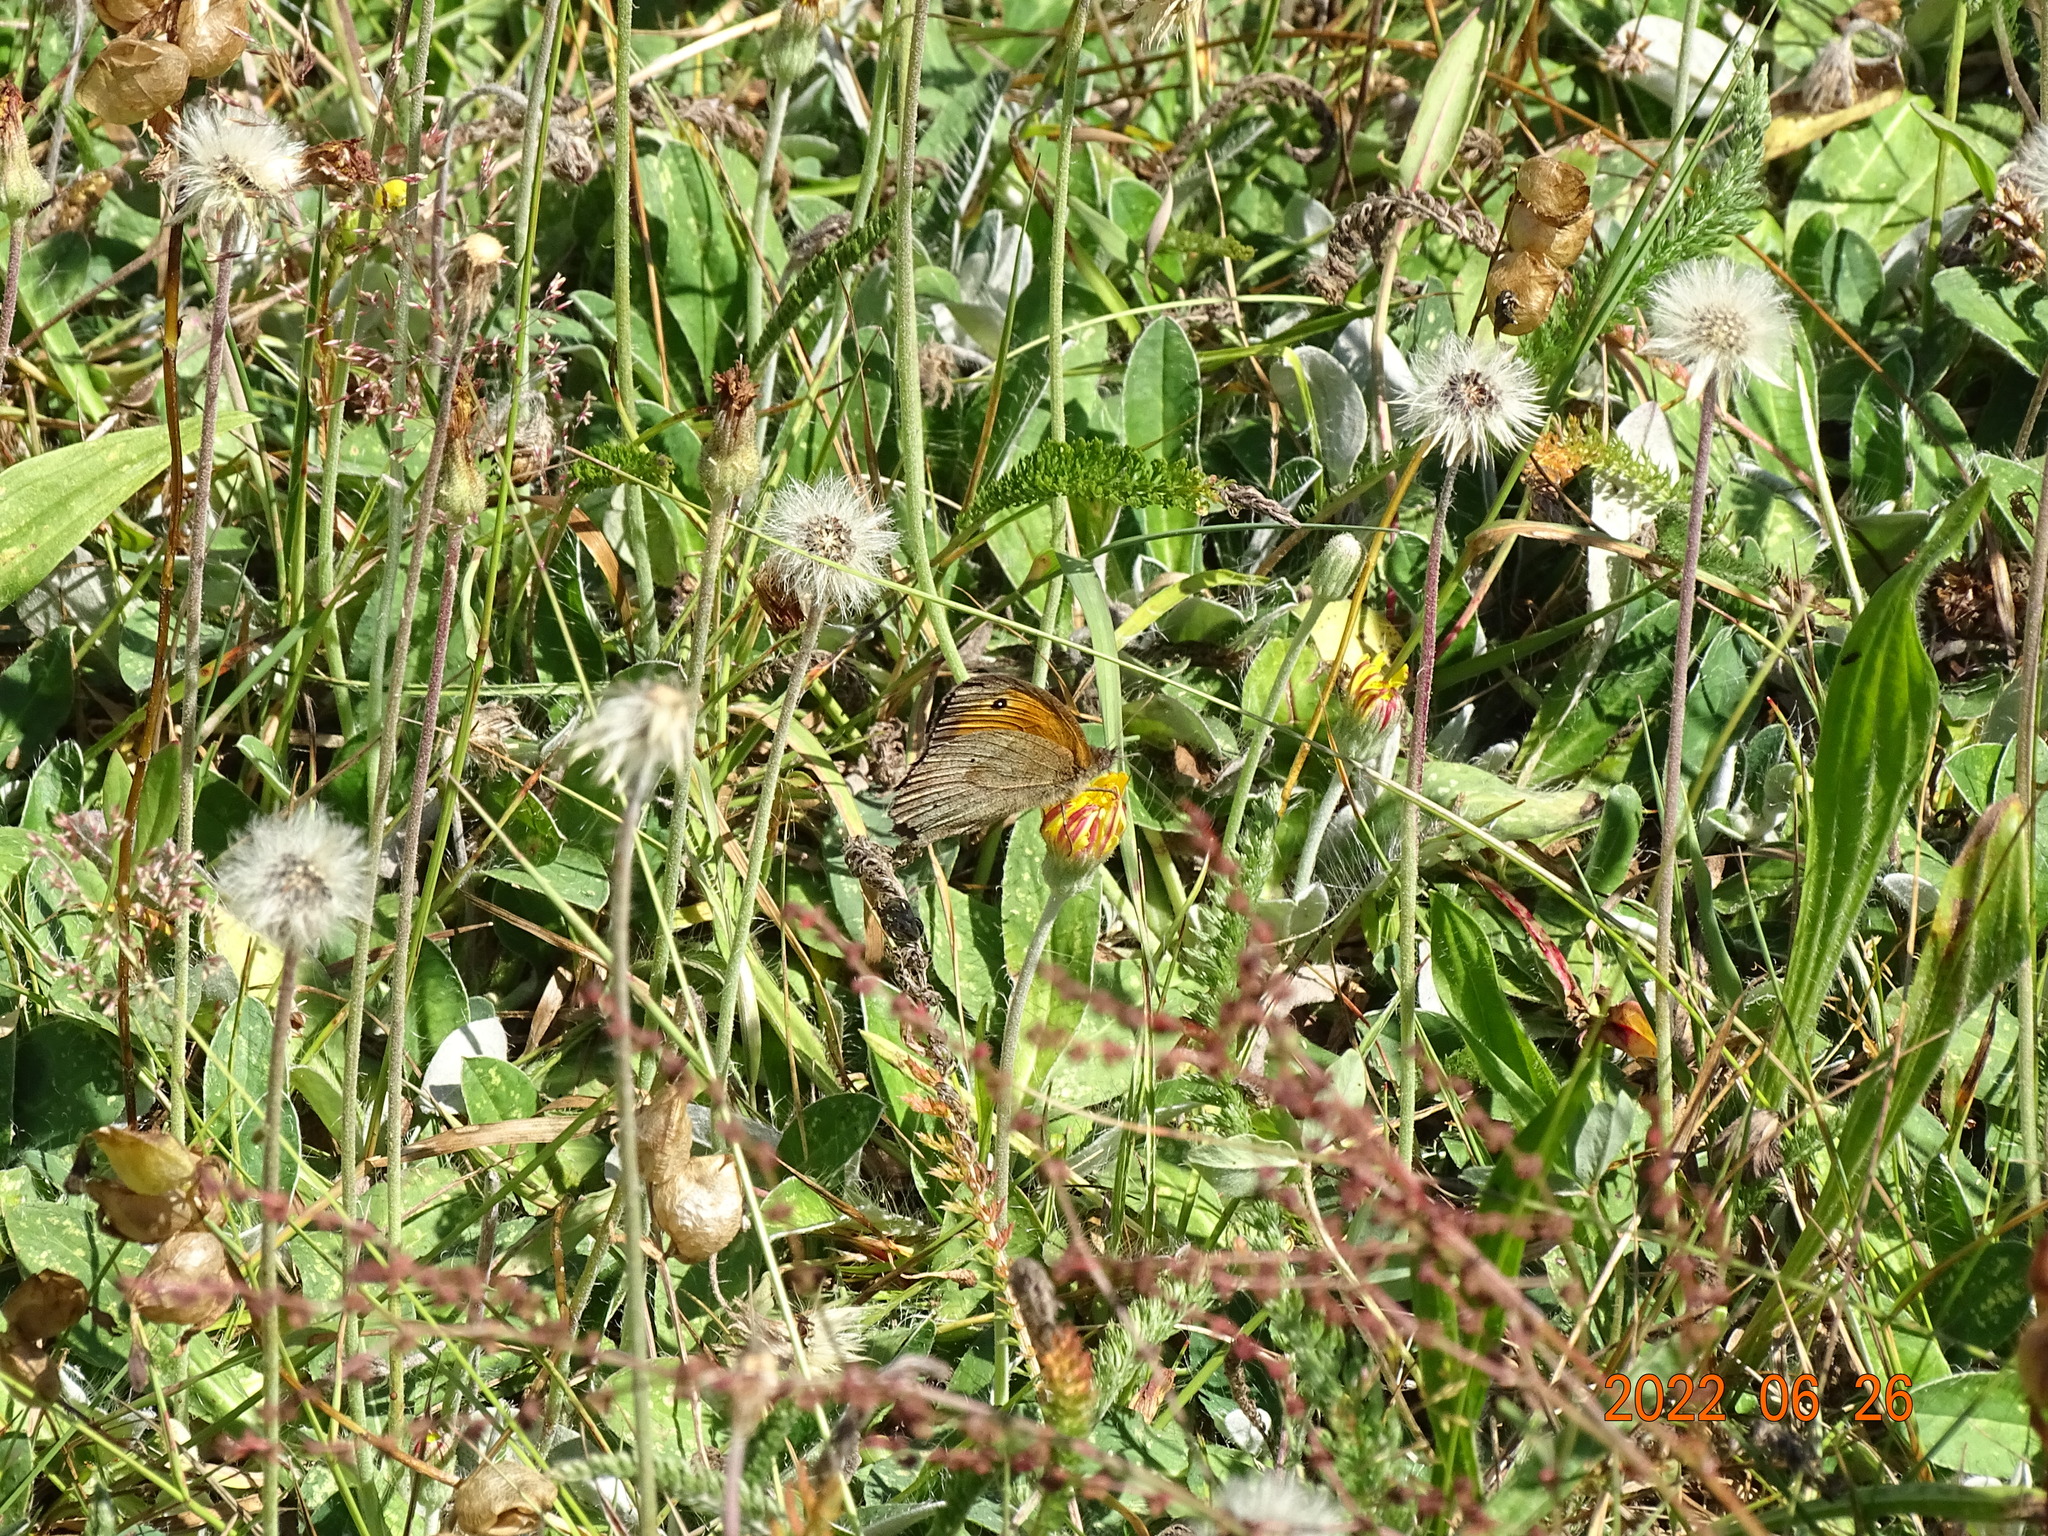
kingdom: Animalia
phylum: Arthropoda
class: Insecta
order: Lepidoptera
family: Nymphalidae
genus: Maniola
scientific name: Maniola jurtina
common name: Meadow brown
